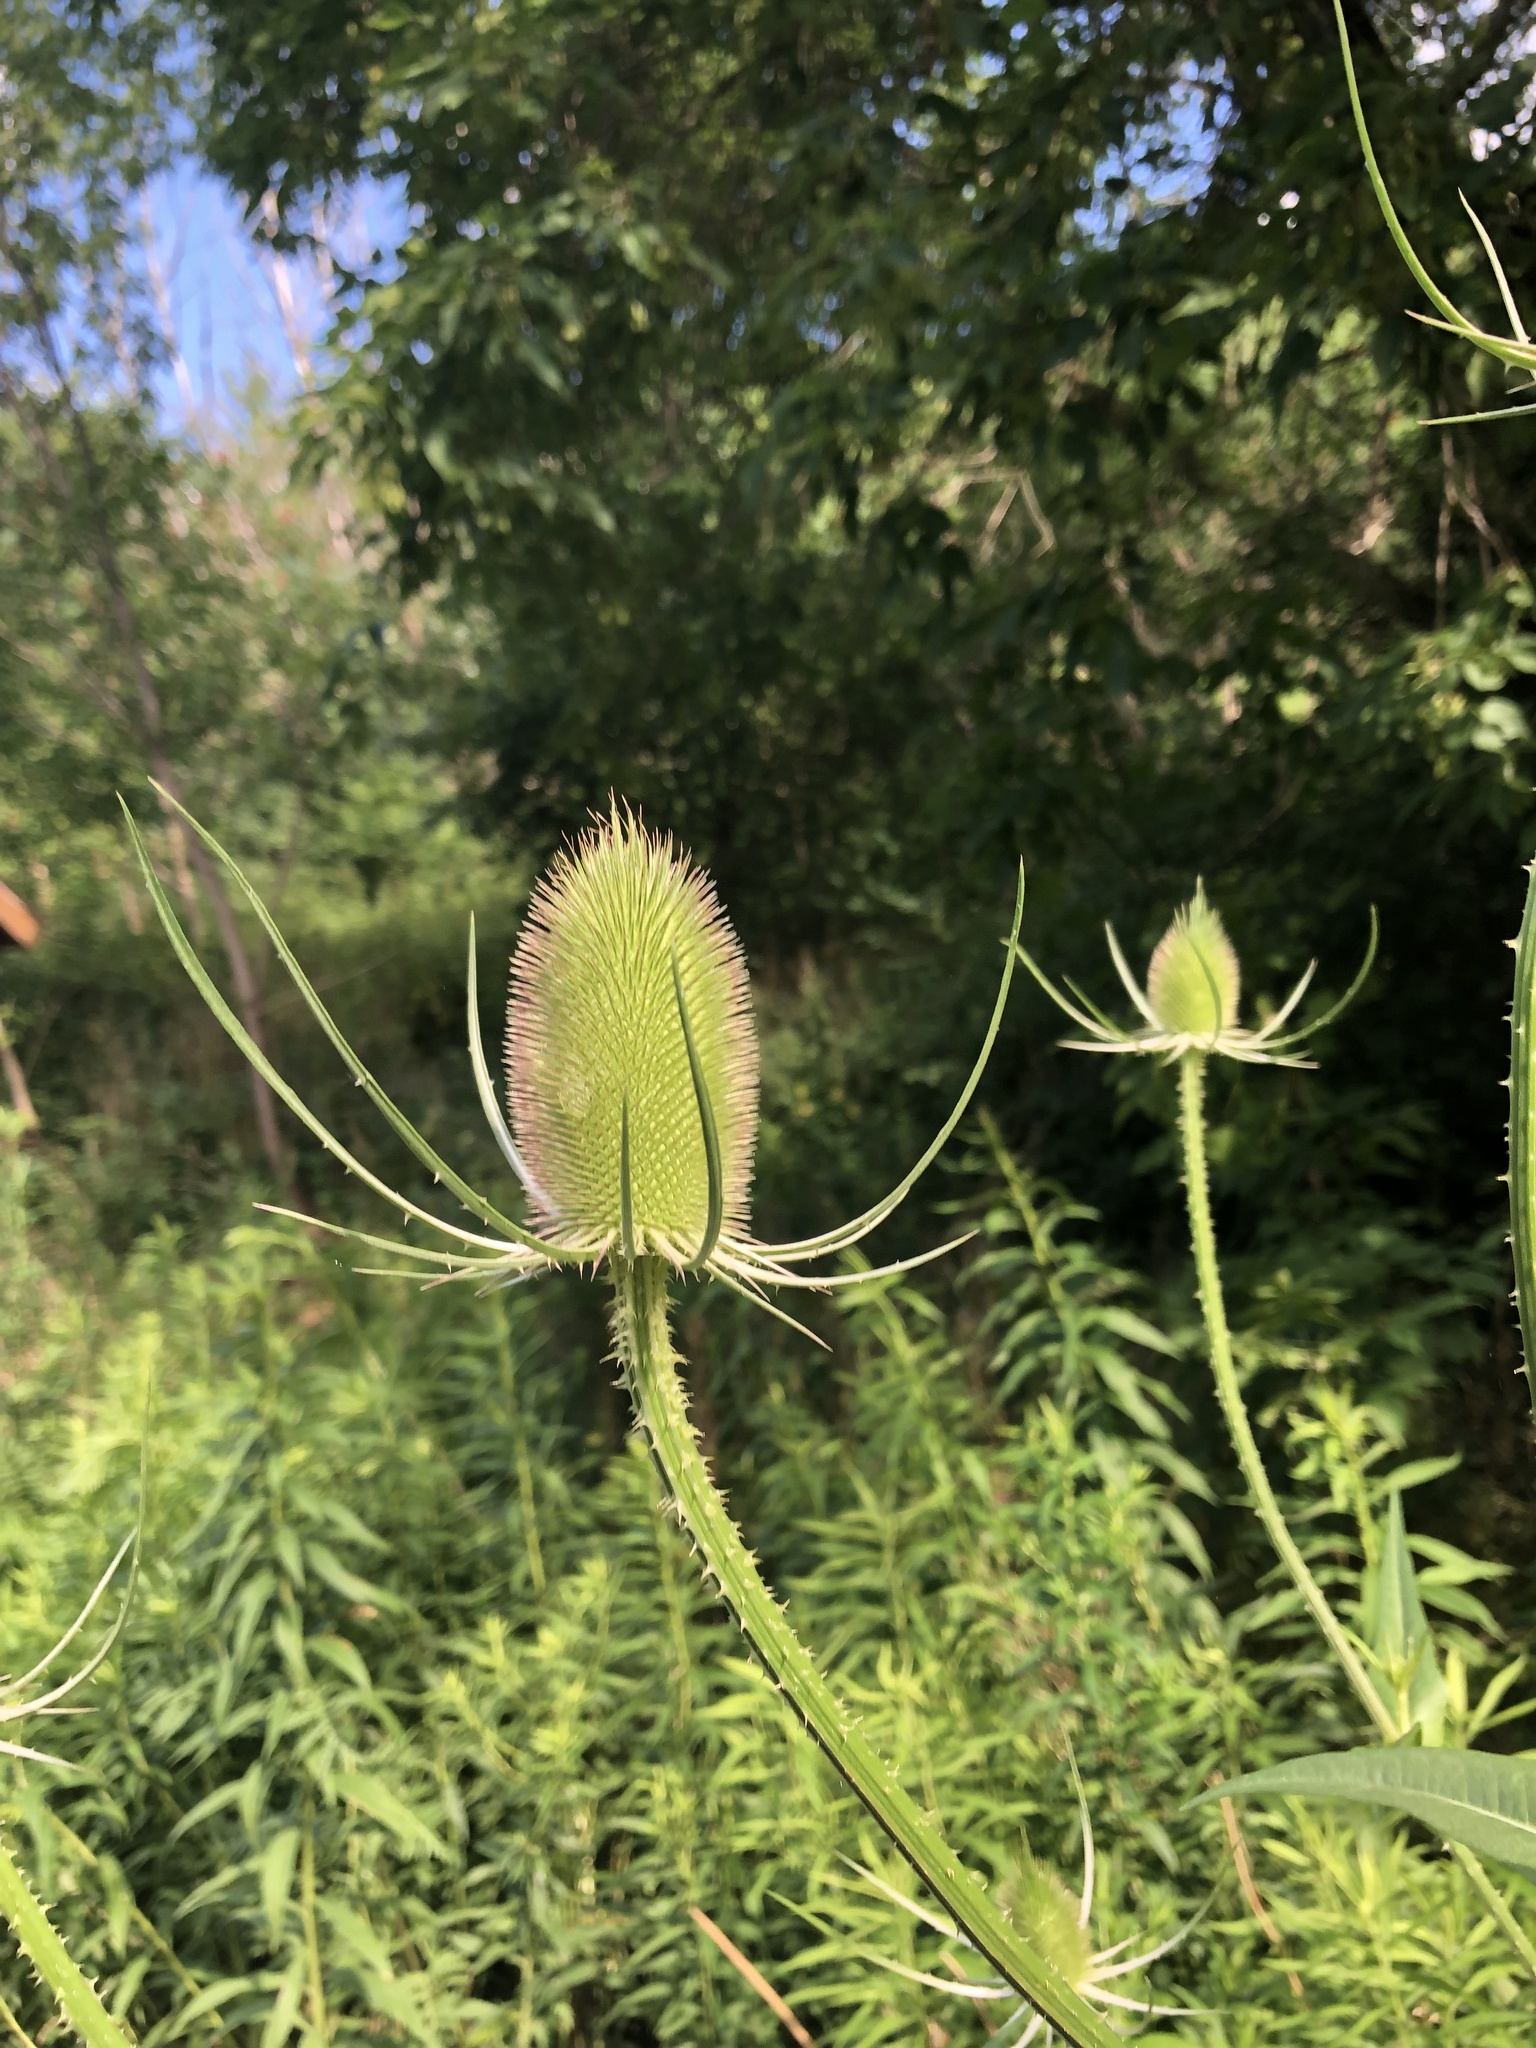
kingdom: Plantae
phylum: Tracheophyta
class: Magnoliopsida
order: Dipsacales
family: Caprifoliaceae
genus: Dipsacus
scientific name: Dipsacus fullonum
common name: Teasel
